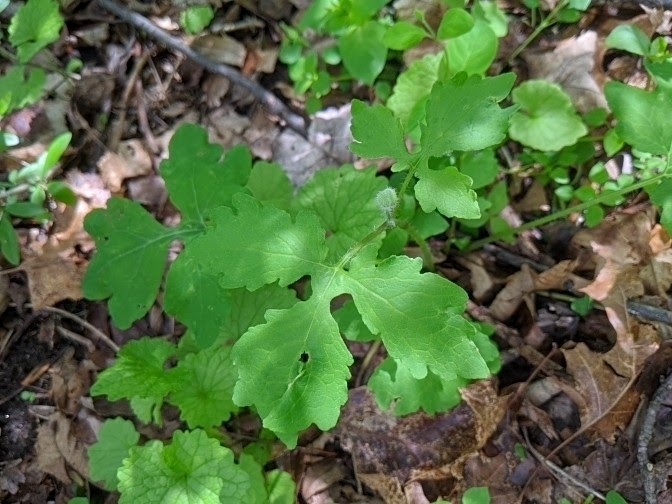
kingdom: Plantae
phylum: Tracheophyta
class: Magnoliopsida
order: Ranunculales
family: Papaveraceae
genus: Stylophorum
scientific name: Stylophorum diphyllum
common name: Celandine poppy
